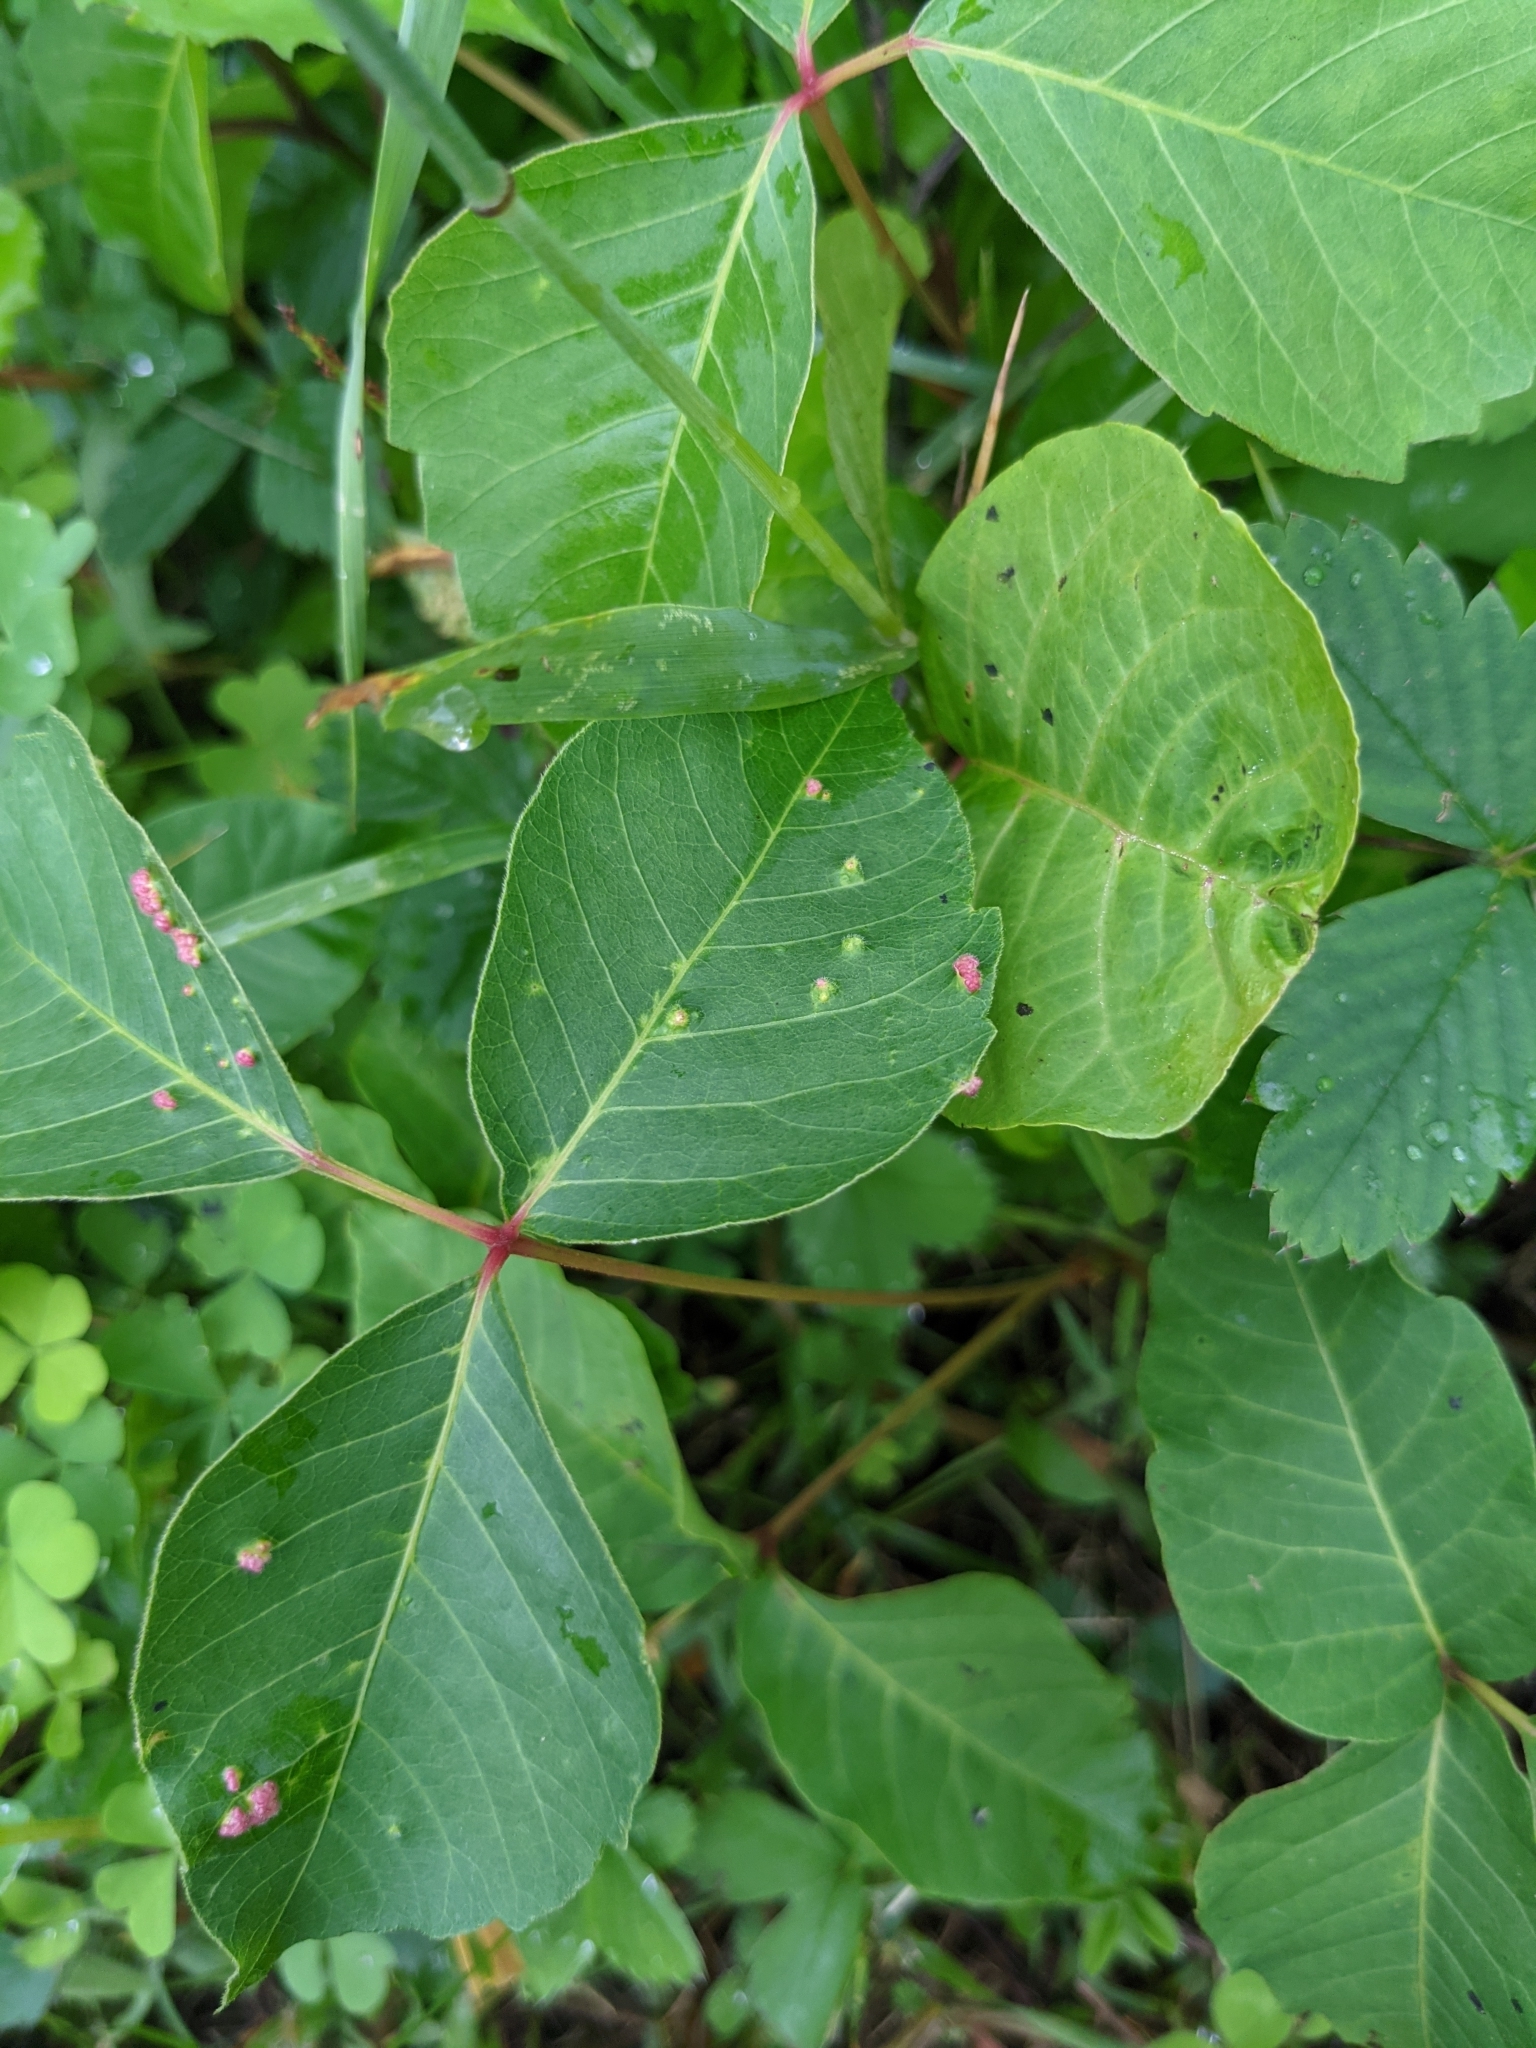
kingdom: Animalia
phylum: Arthropoda
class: Arachnida
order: Trombidiformes
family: Eriophyidae
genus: Aculops
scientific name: Aculops
